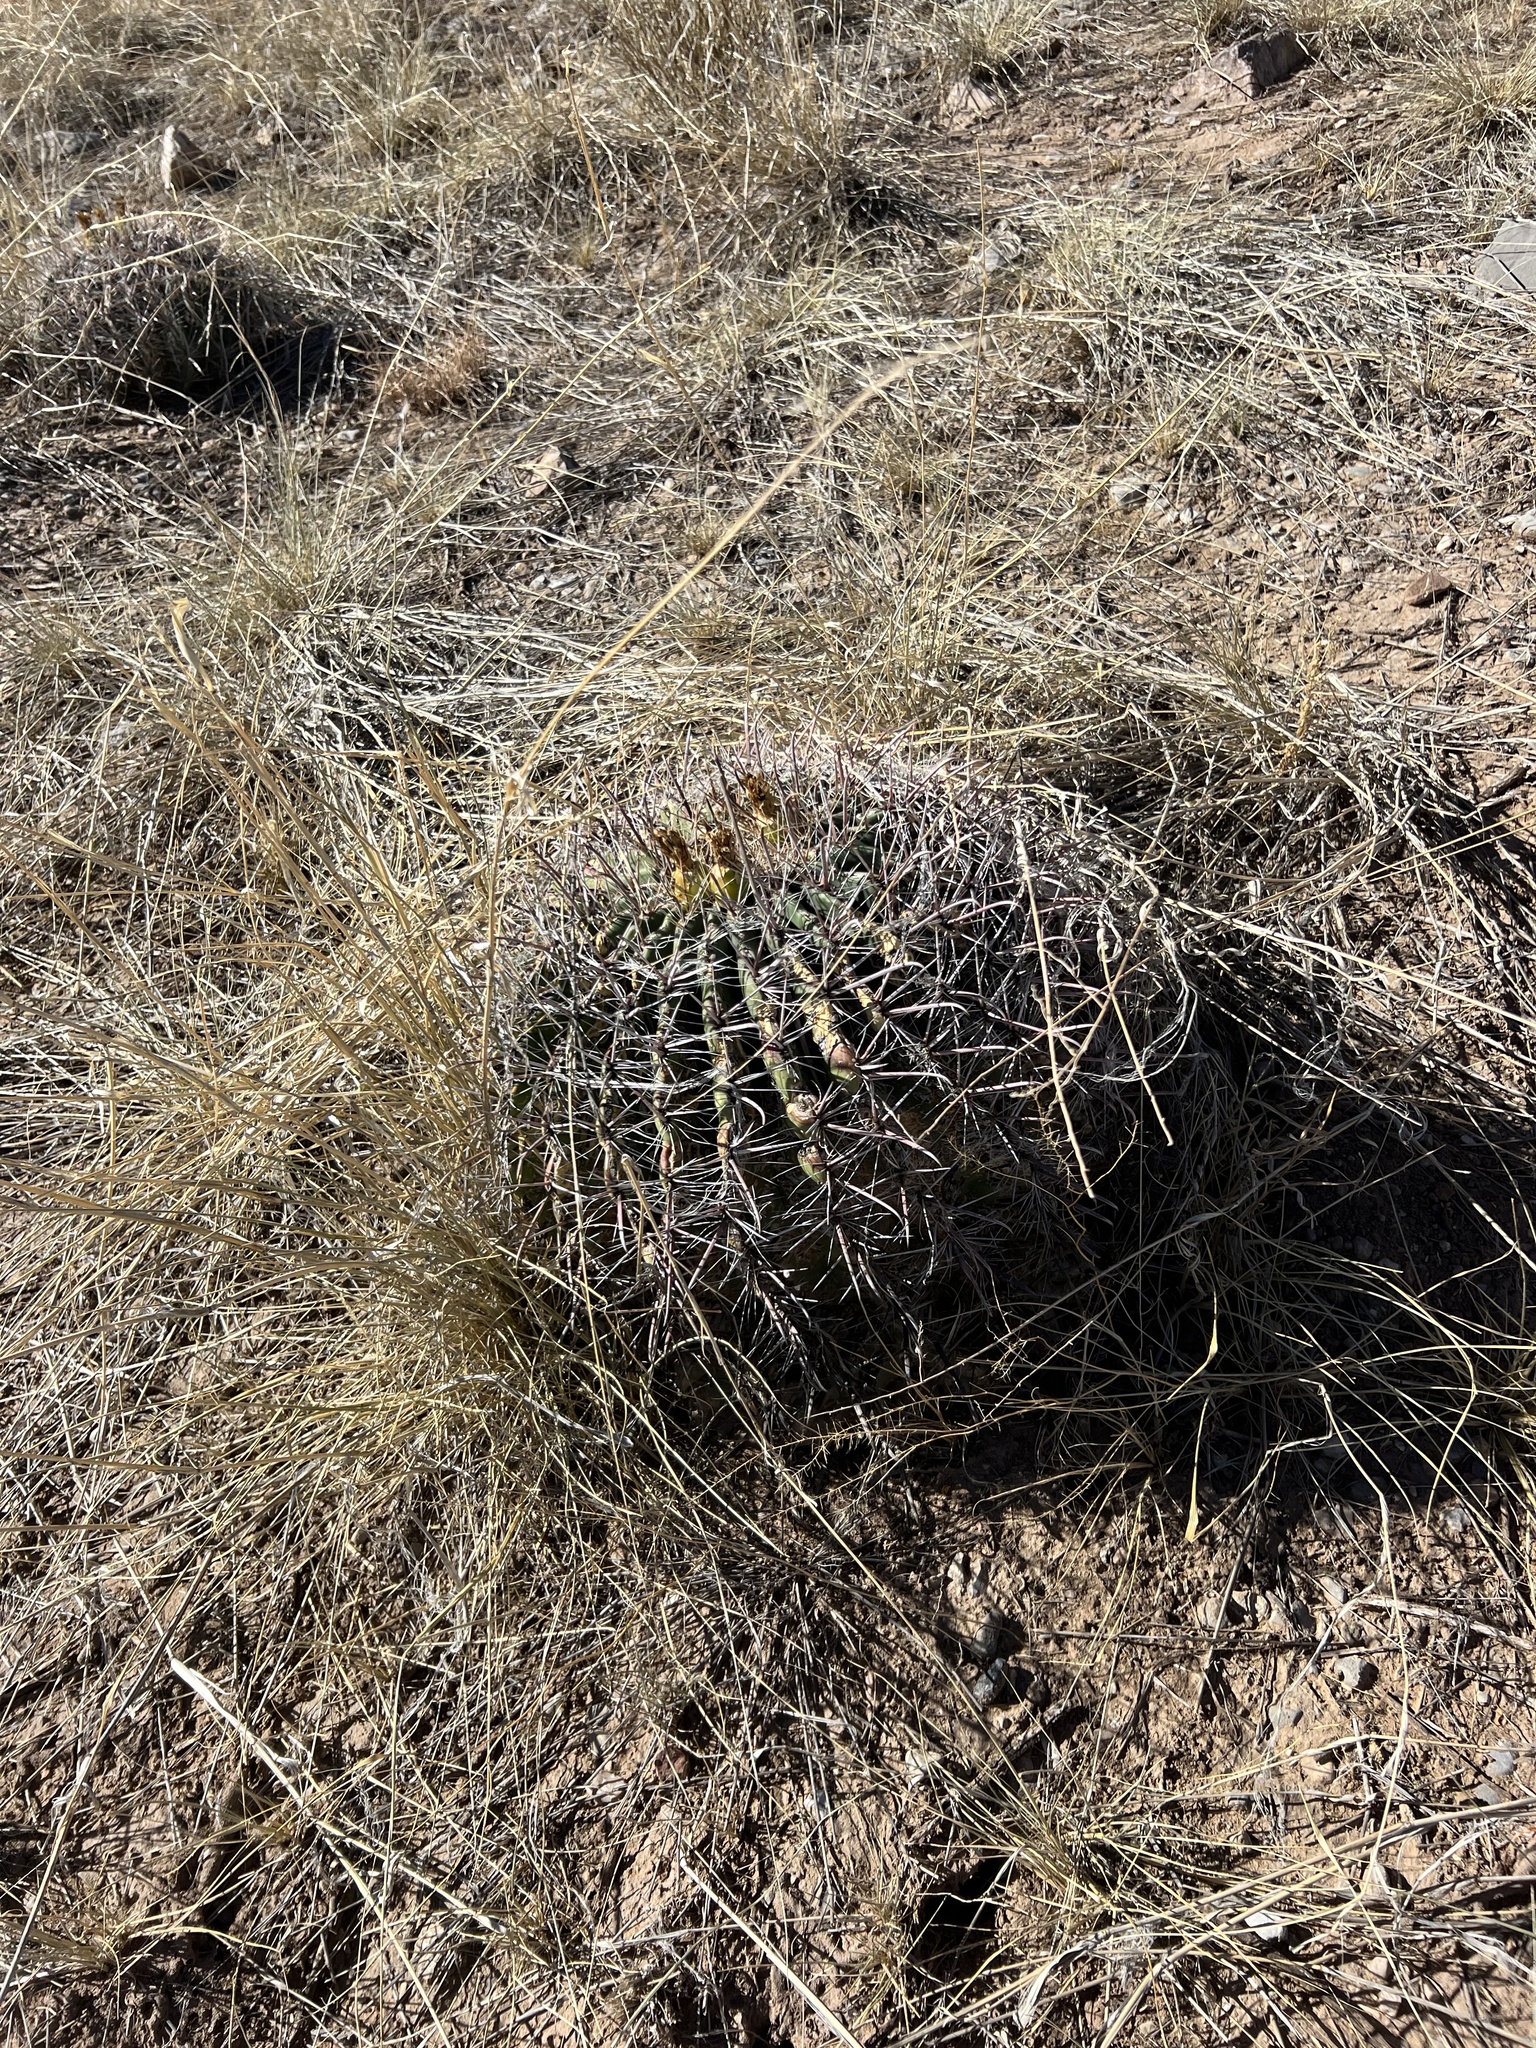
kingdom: Plantae
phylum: Tracheophyta
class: Magnoliopsida
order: Caryophyllales
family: Cactaceae
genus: Ferocactus
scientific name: Ferocactus wislizeni
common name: Candy barrel cactus
